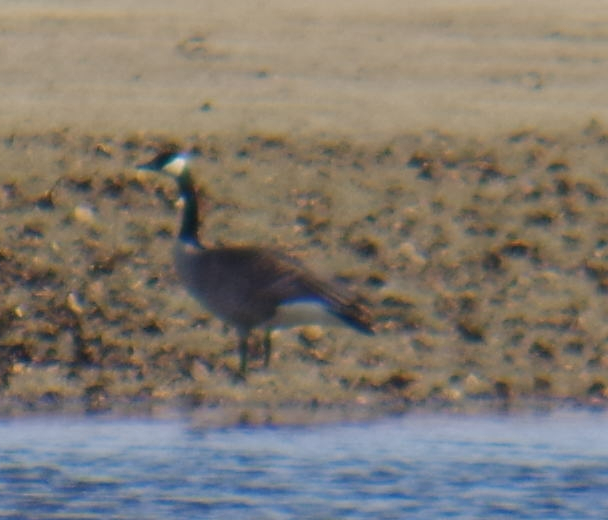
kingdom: Animalia
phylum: Chordata
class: Aves
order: Anseriformes
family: Anatidae
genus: Branta
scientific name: Branta canadensis
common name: Canada goose
